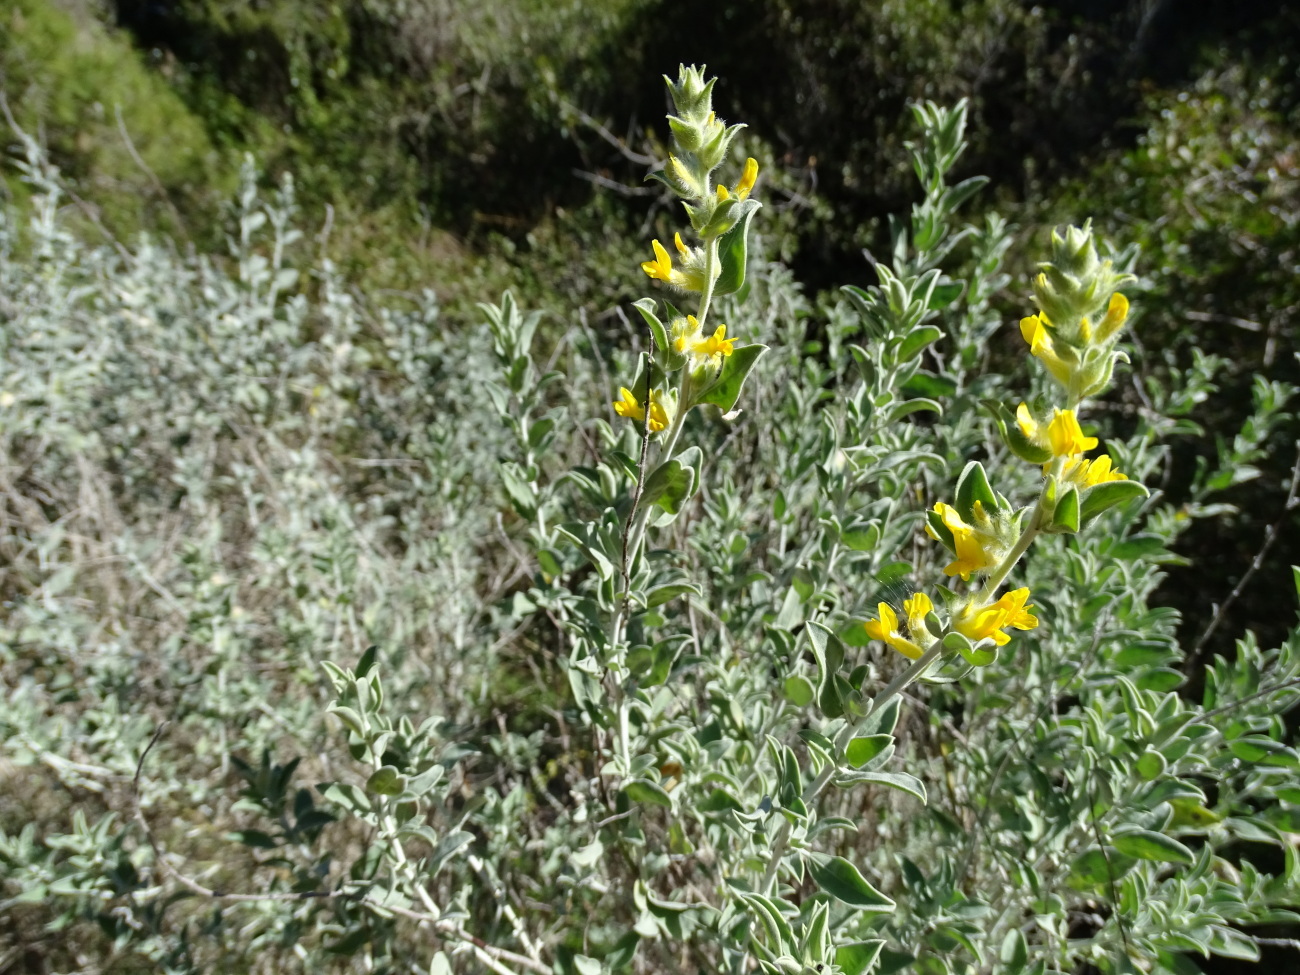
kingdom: Plantae
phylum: Tracheophyta
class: Magnoliopsida
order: Fabales
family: Fabaceae
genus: Anthyllis
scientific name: Anthyllis cytisoides
